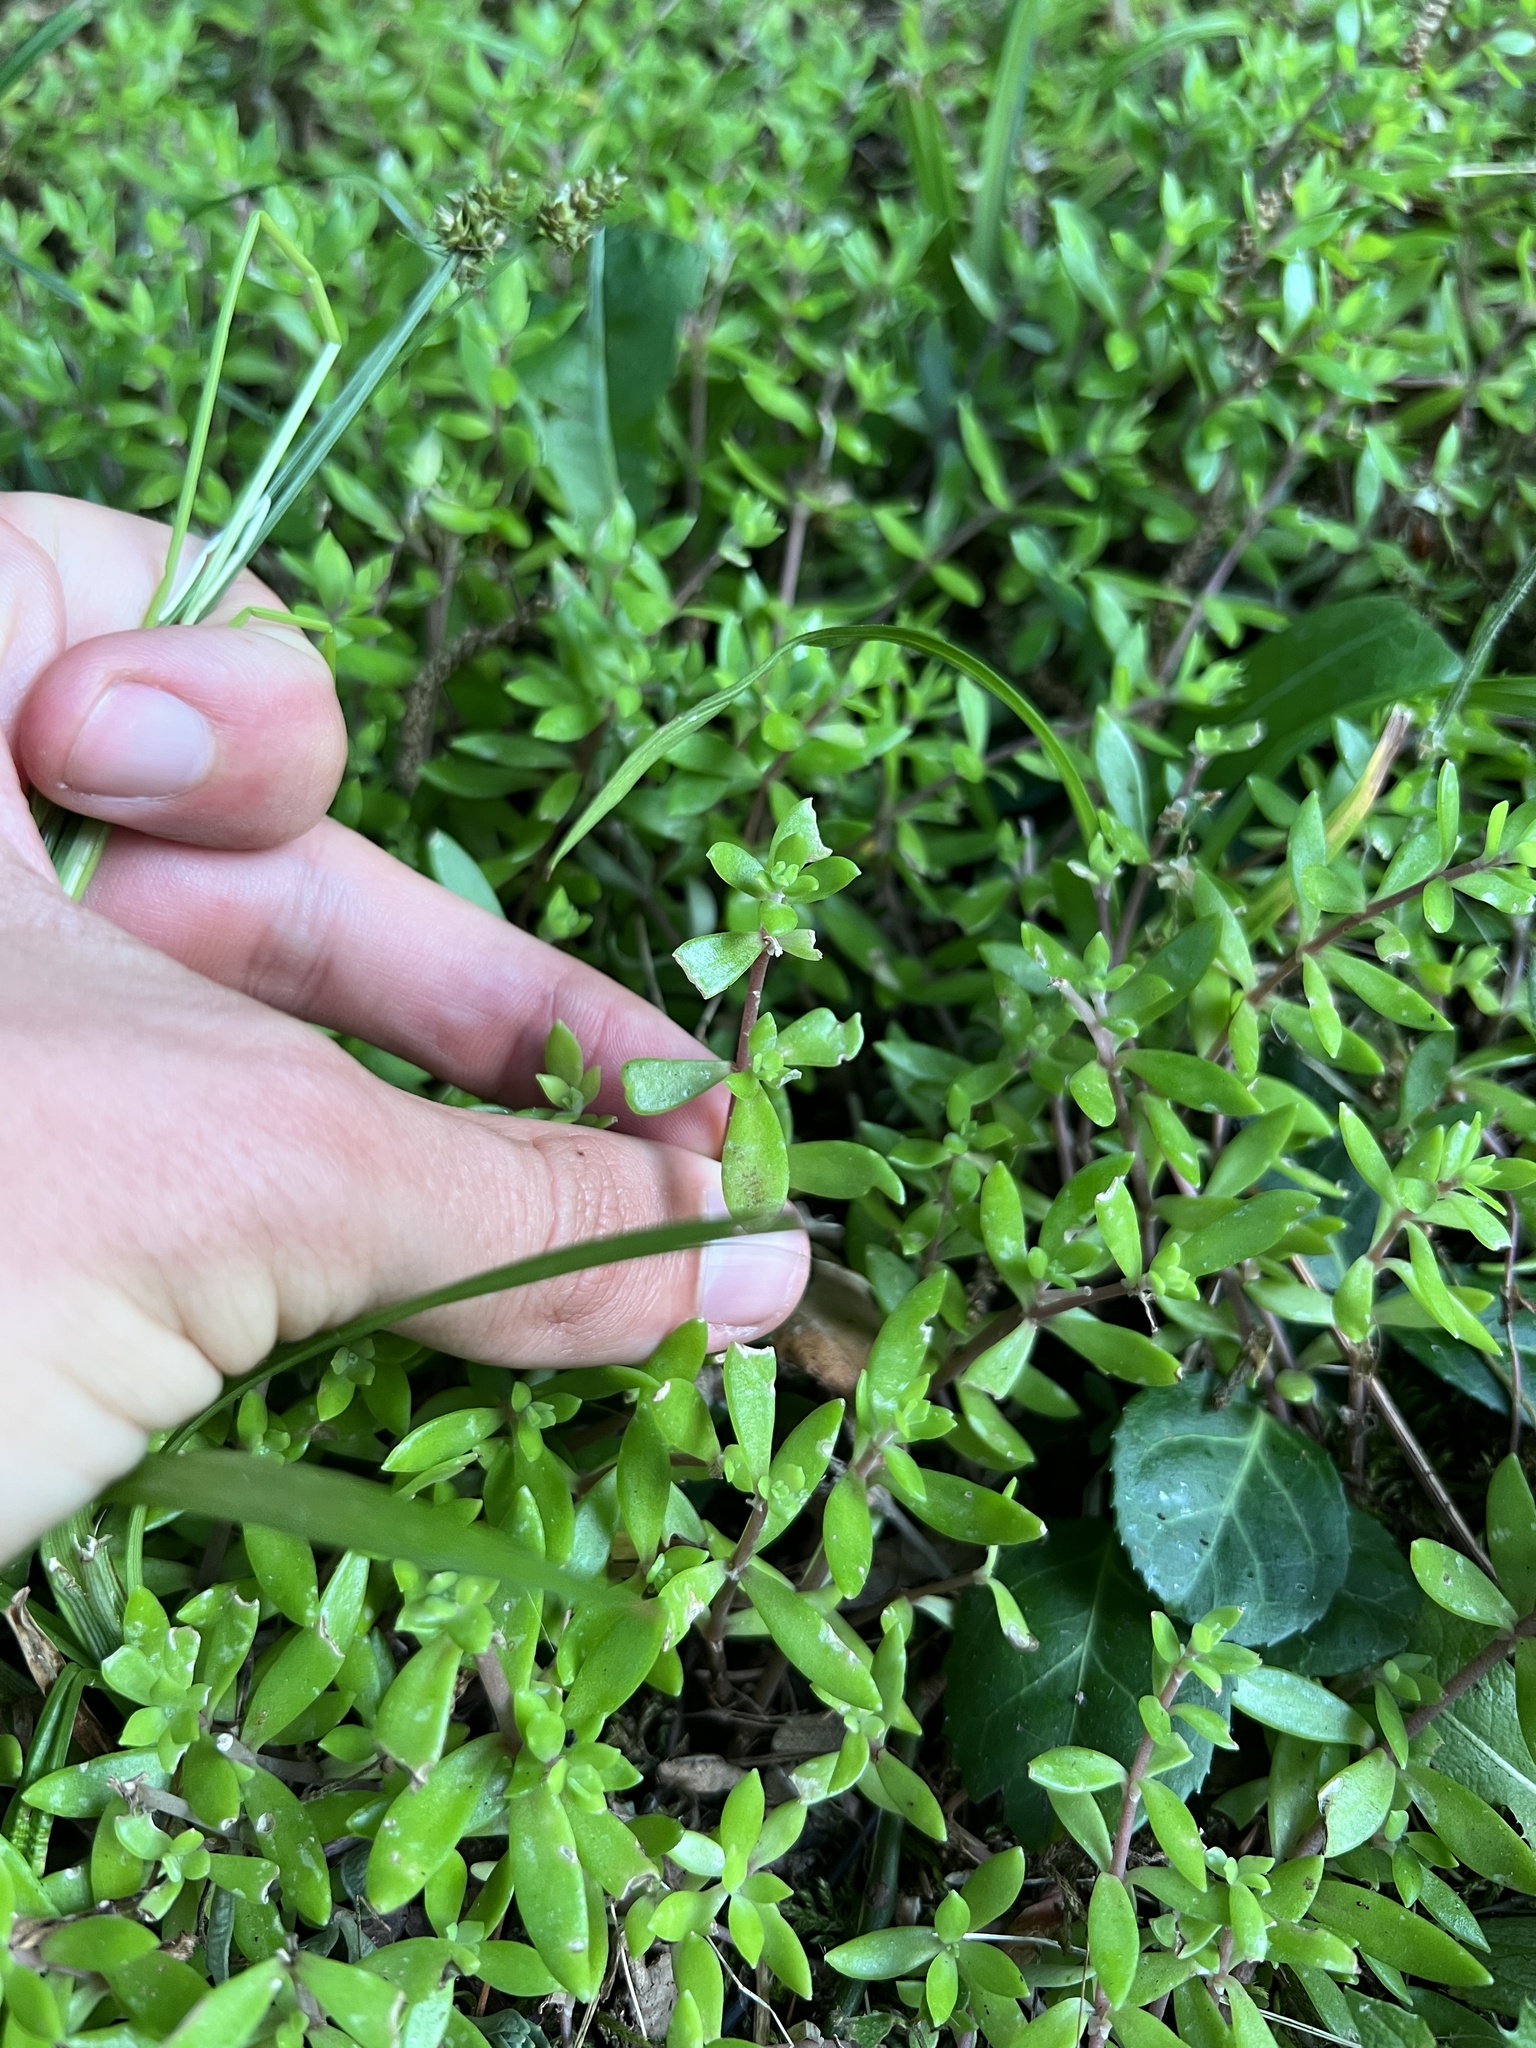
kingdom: Plantae
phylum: Tracheophyta
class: Magnoliopsida
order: Saxifragales
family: Crassulaceae
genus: Sedum
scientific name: Sedum sarmentosum
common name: Stringy stonecrop
